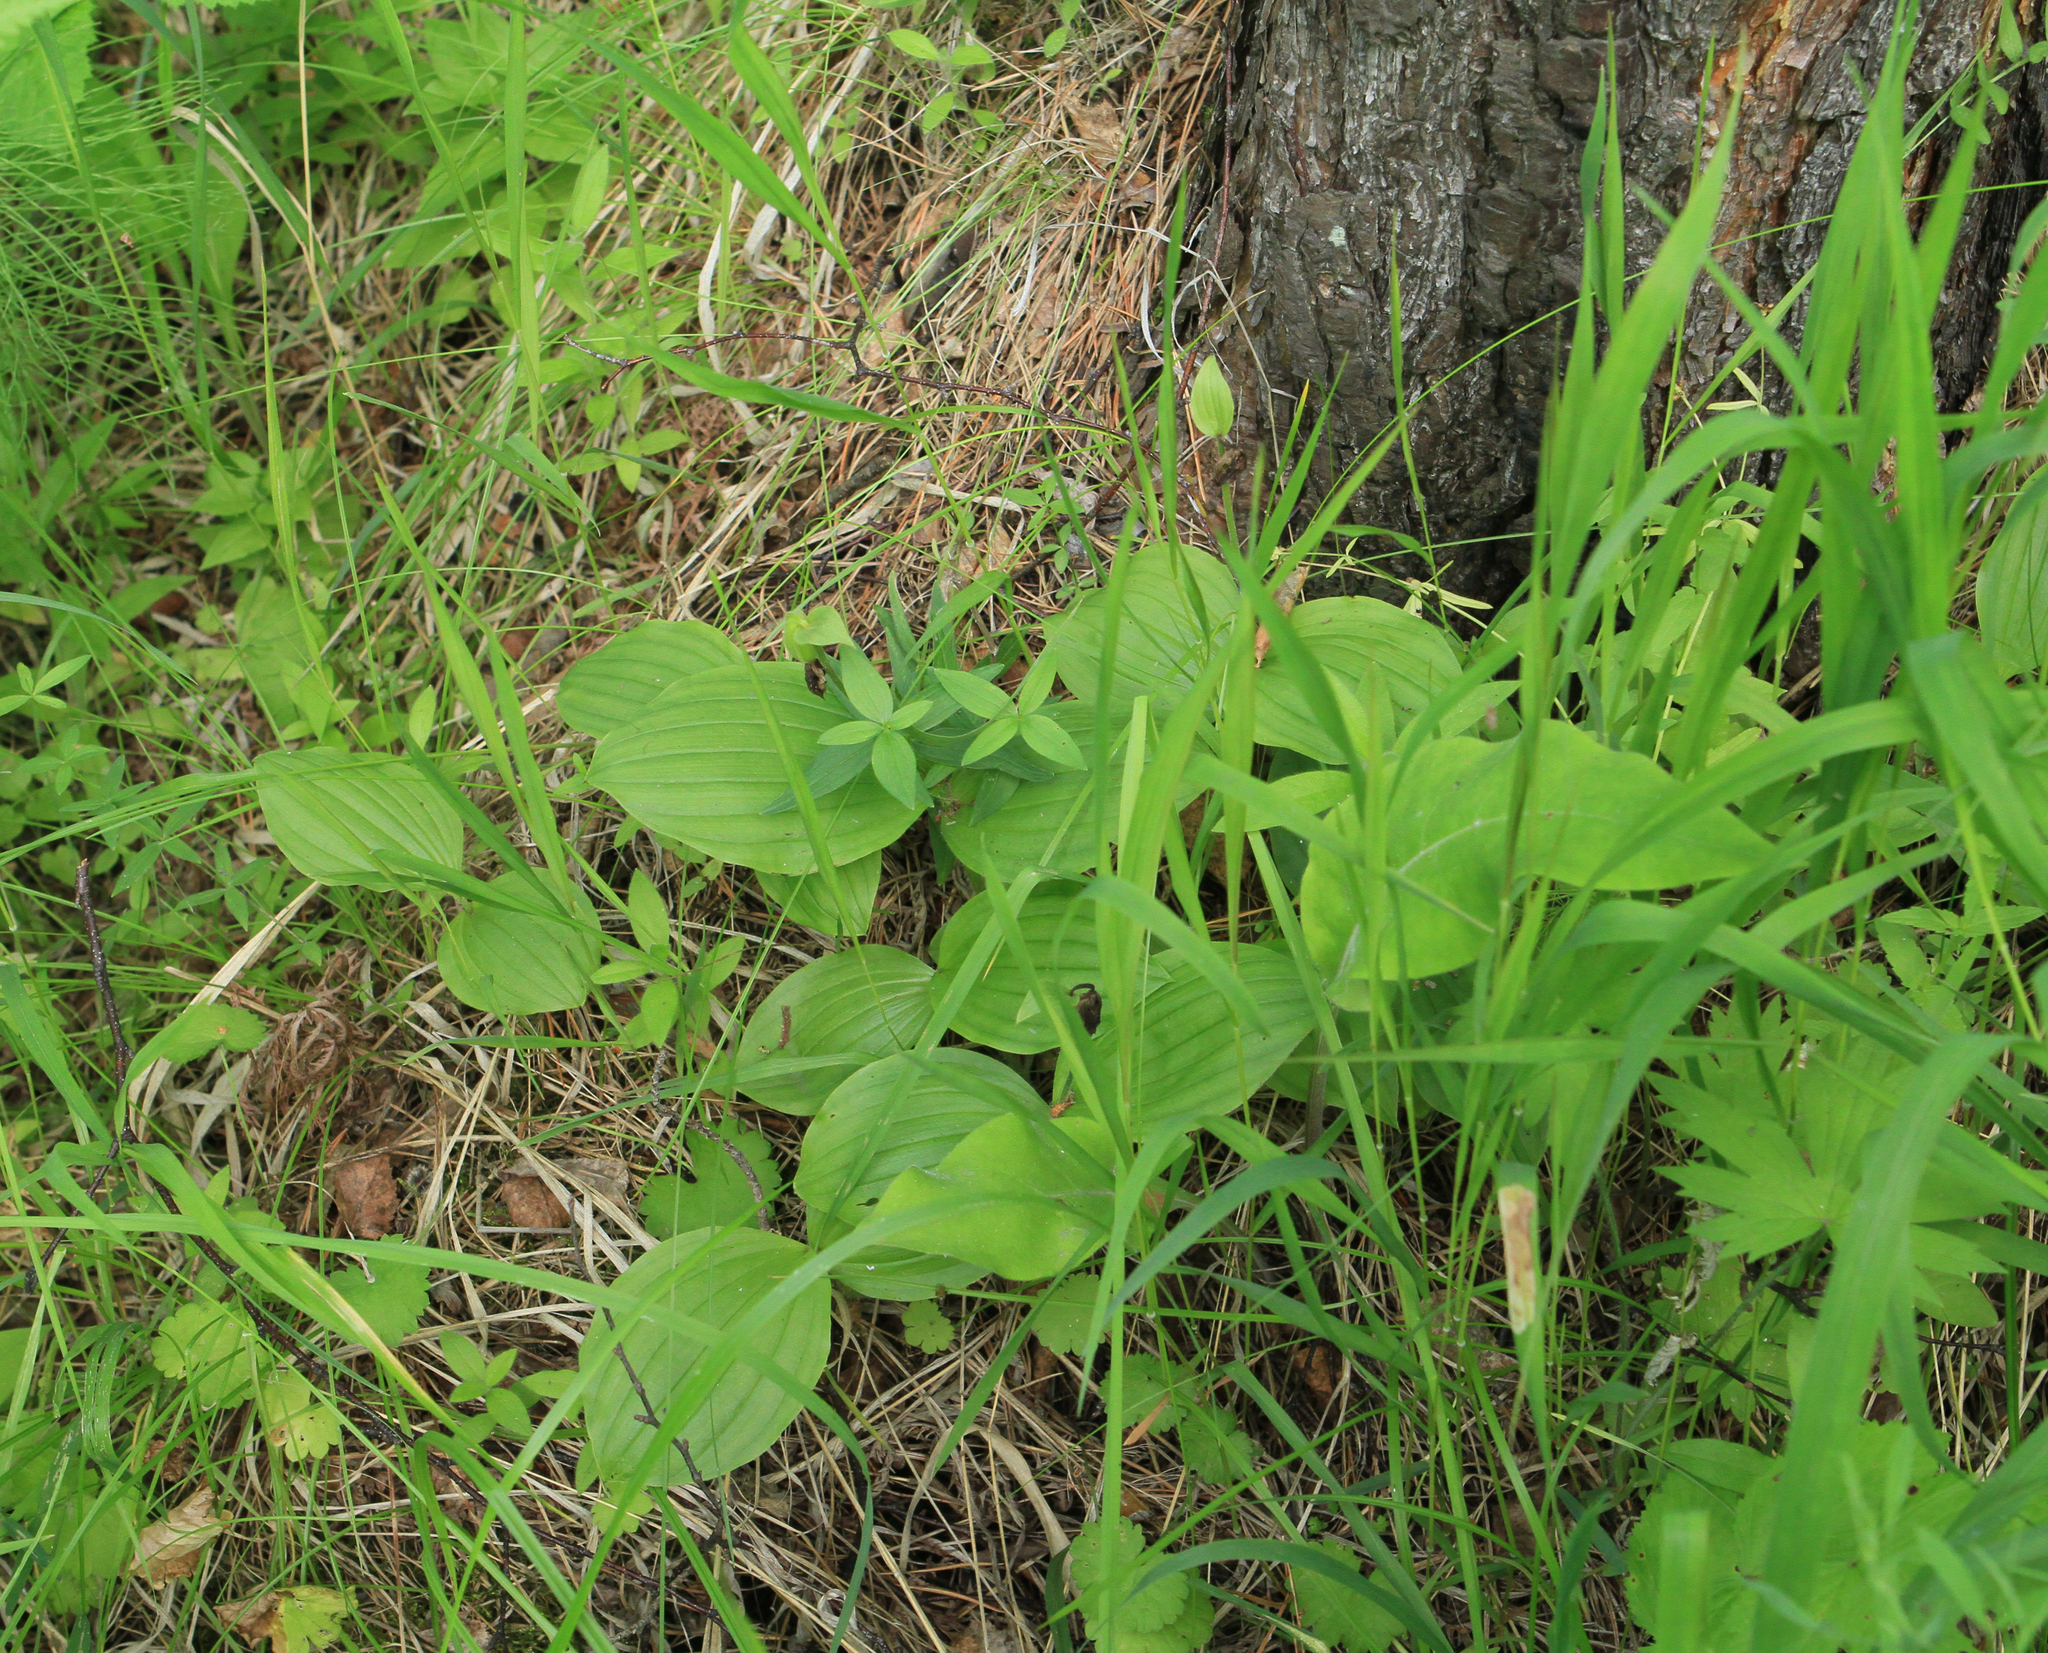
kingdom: Plantae
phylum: Tracheophyta
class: Liliopsida
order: Asparagales
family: Orchidaceae
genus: Cypripedium
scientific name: Cypripedium guttatum
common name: Pink lady slipper
